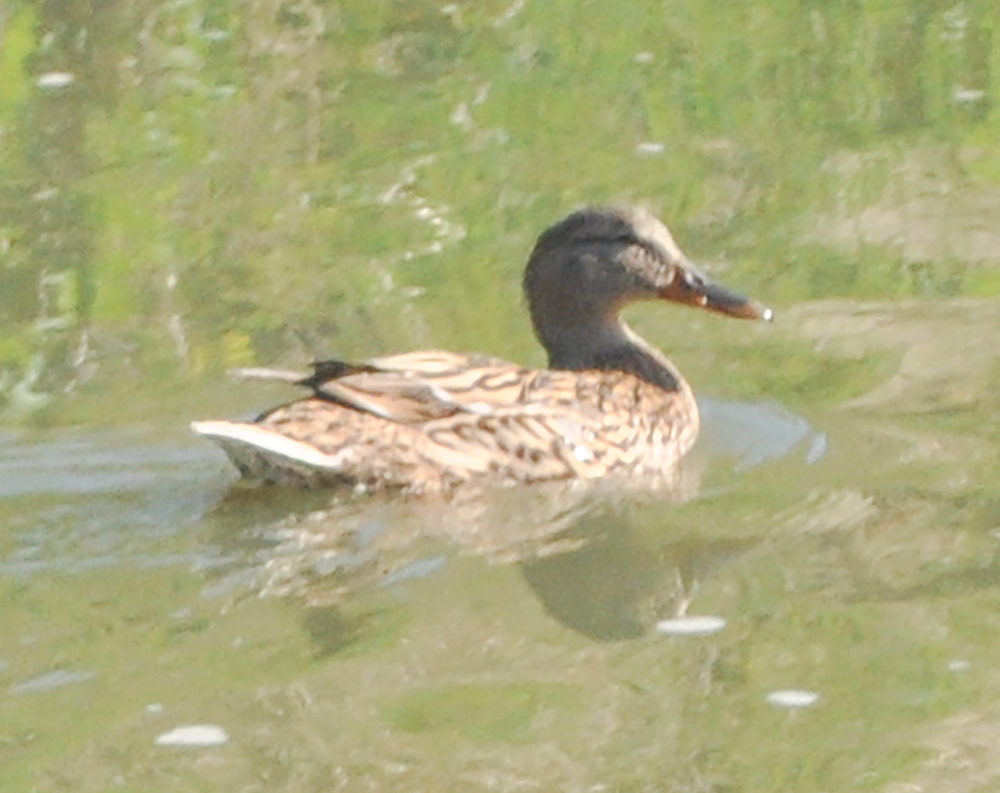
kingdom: Animalia
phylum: Chordata
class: Aves
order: Anseriformes
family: Anatidae
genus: Anas
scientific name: Anas platyrhynchos
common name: Mallard
